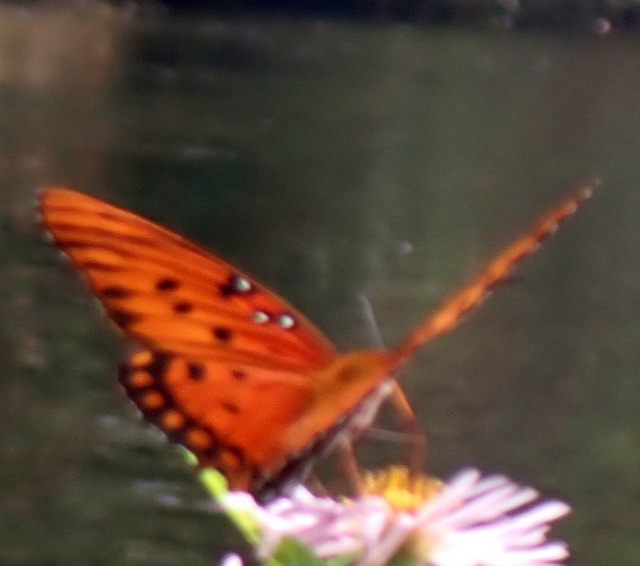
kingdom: Animalia
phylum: Arthropoda
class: Insecta
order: Lepidoptera
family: Nymphalidae
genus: Dione
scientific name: Dione vanillae
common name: Gulf fritillary
